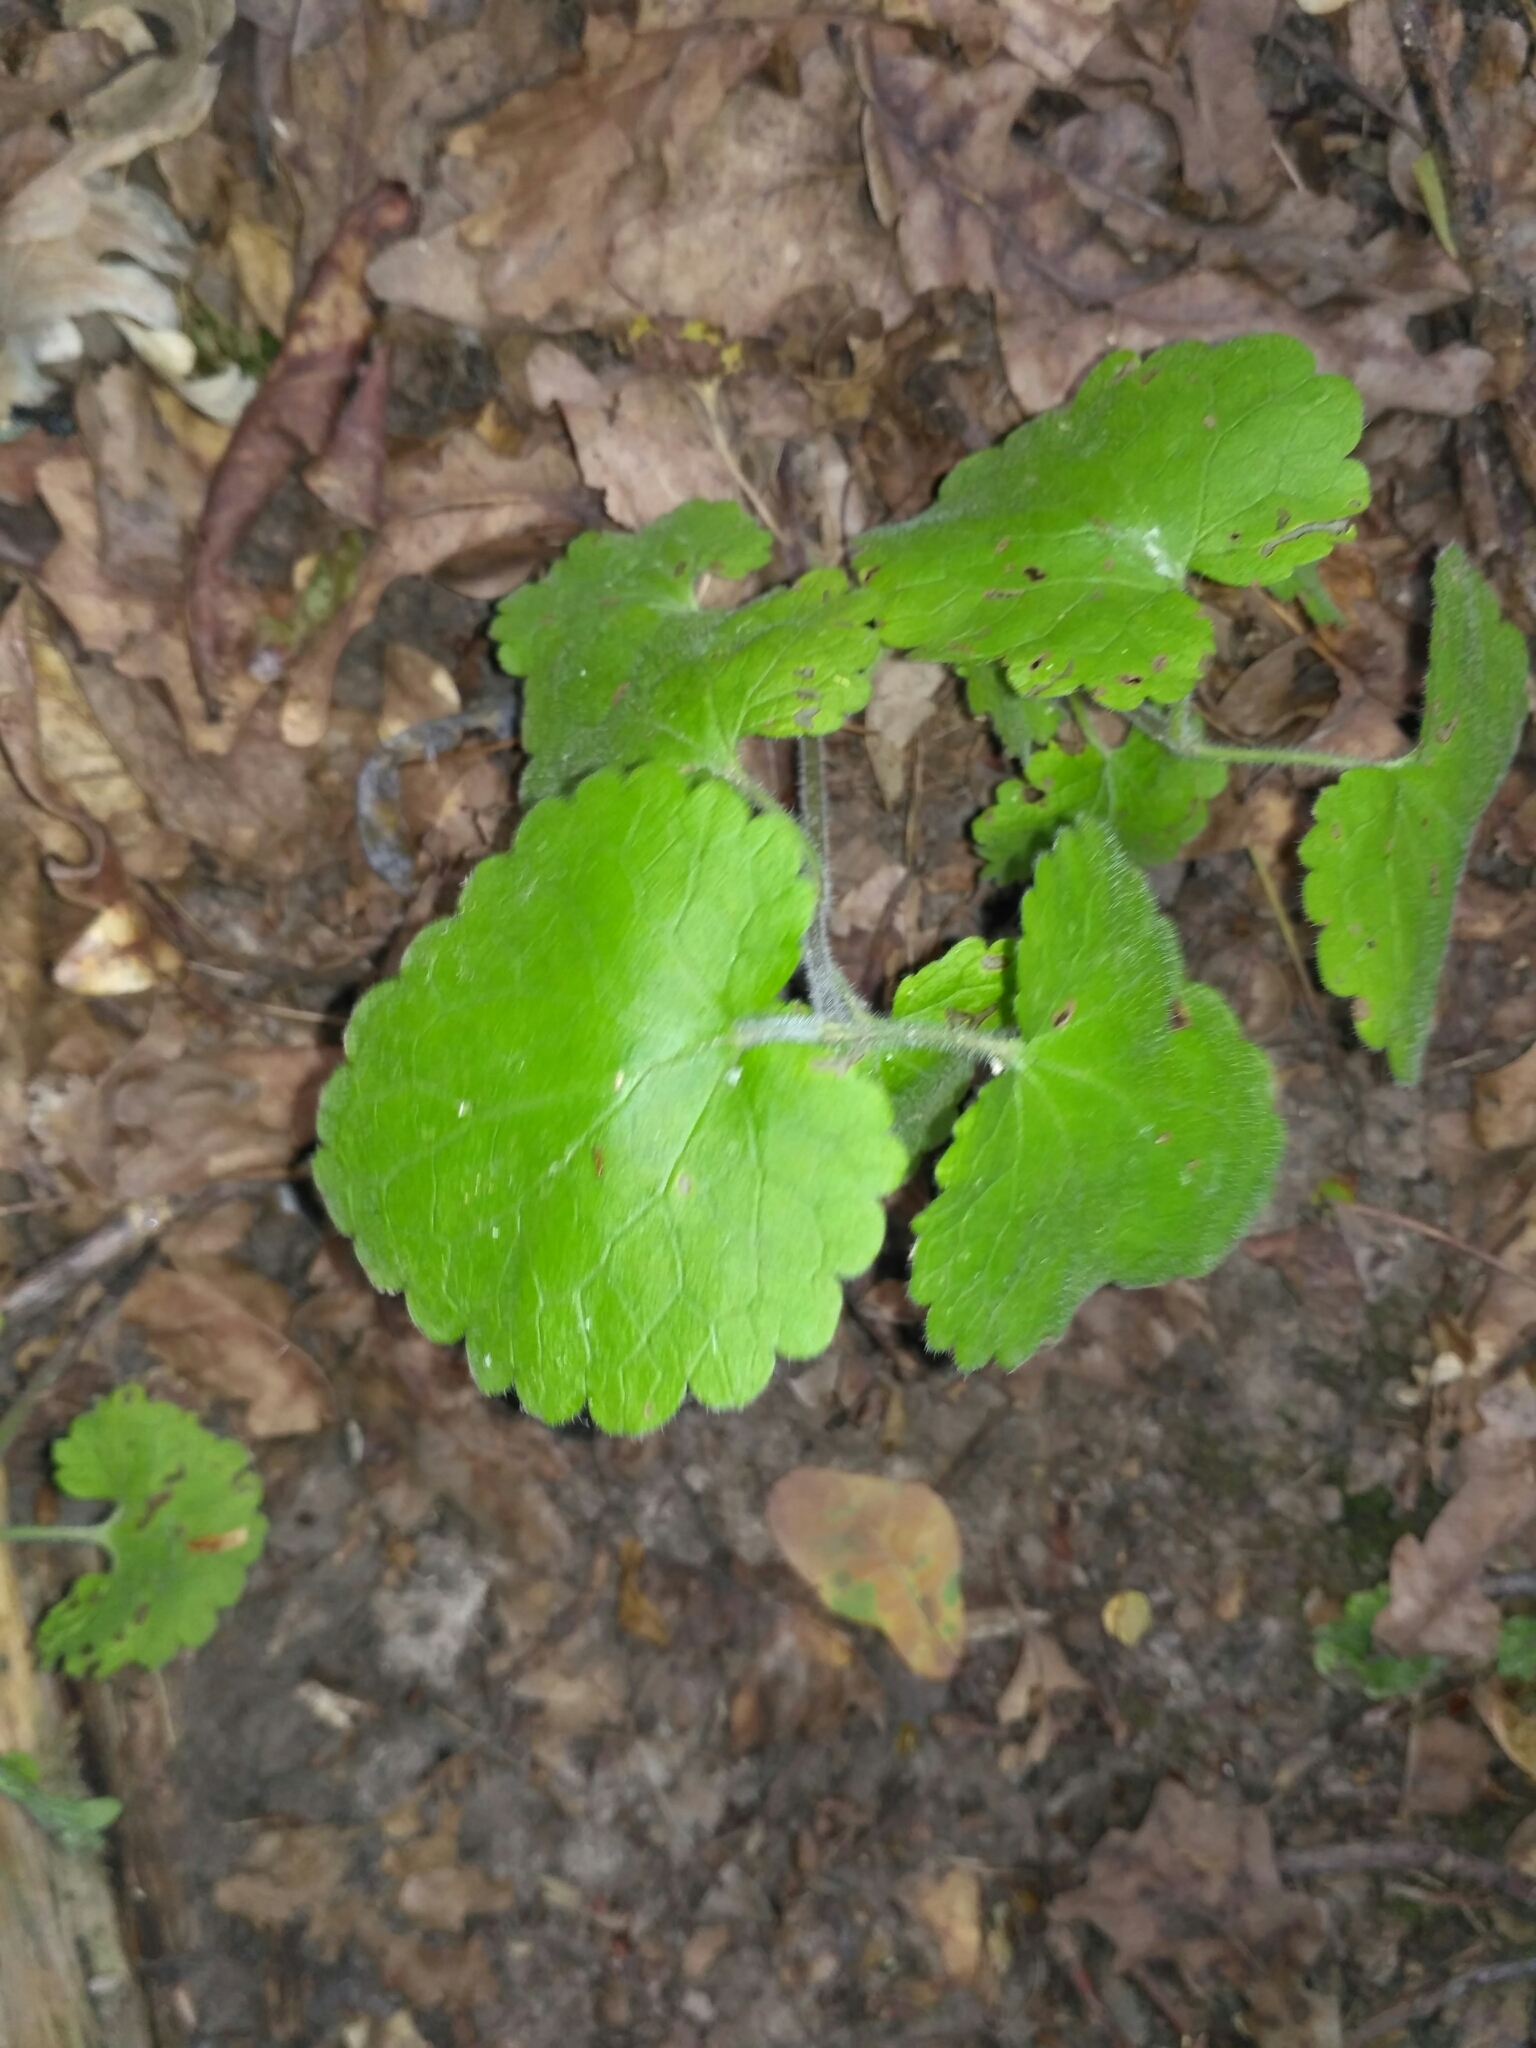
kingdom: Plantae
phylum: Tracheophyta
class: Magnoliopsida
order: Lamiales
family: Lamiaceae
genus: Glechoma
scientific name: Glechoma hederacea
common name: Ground ivy
